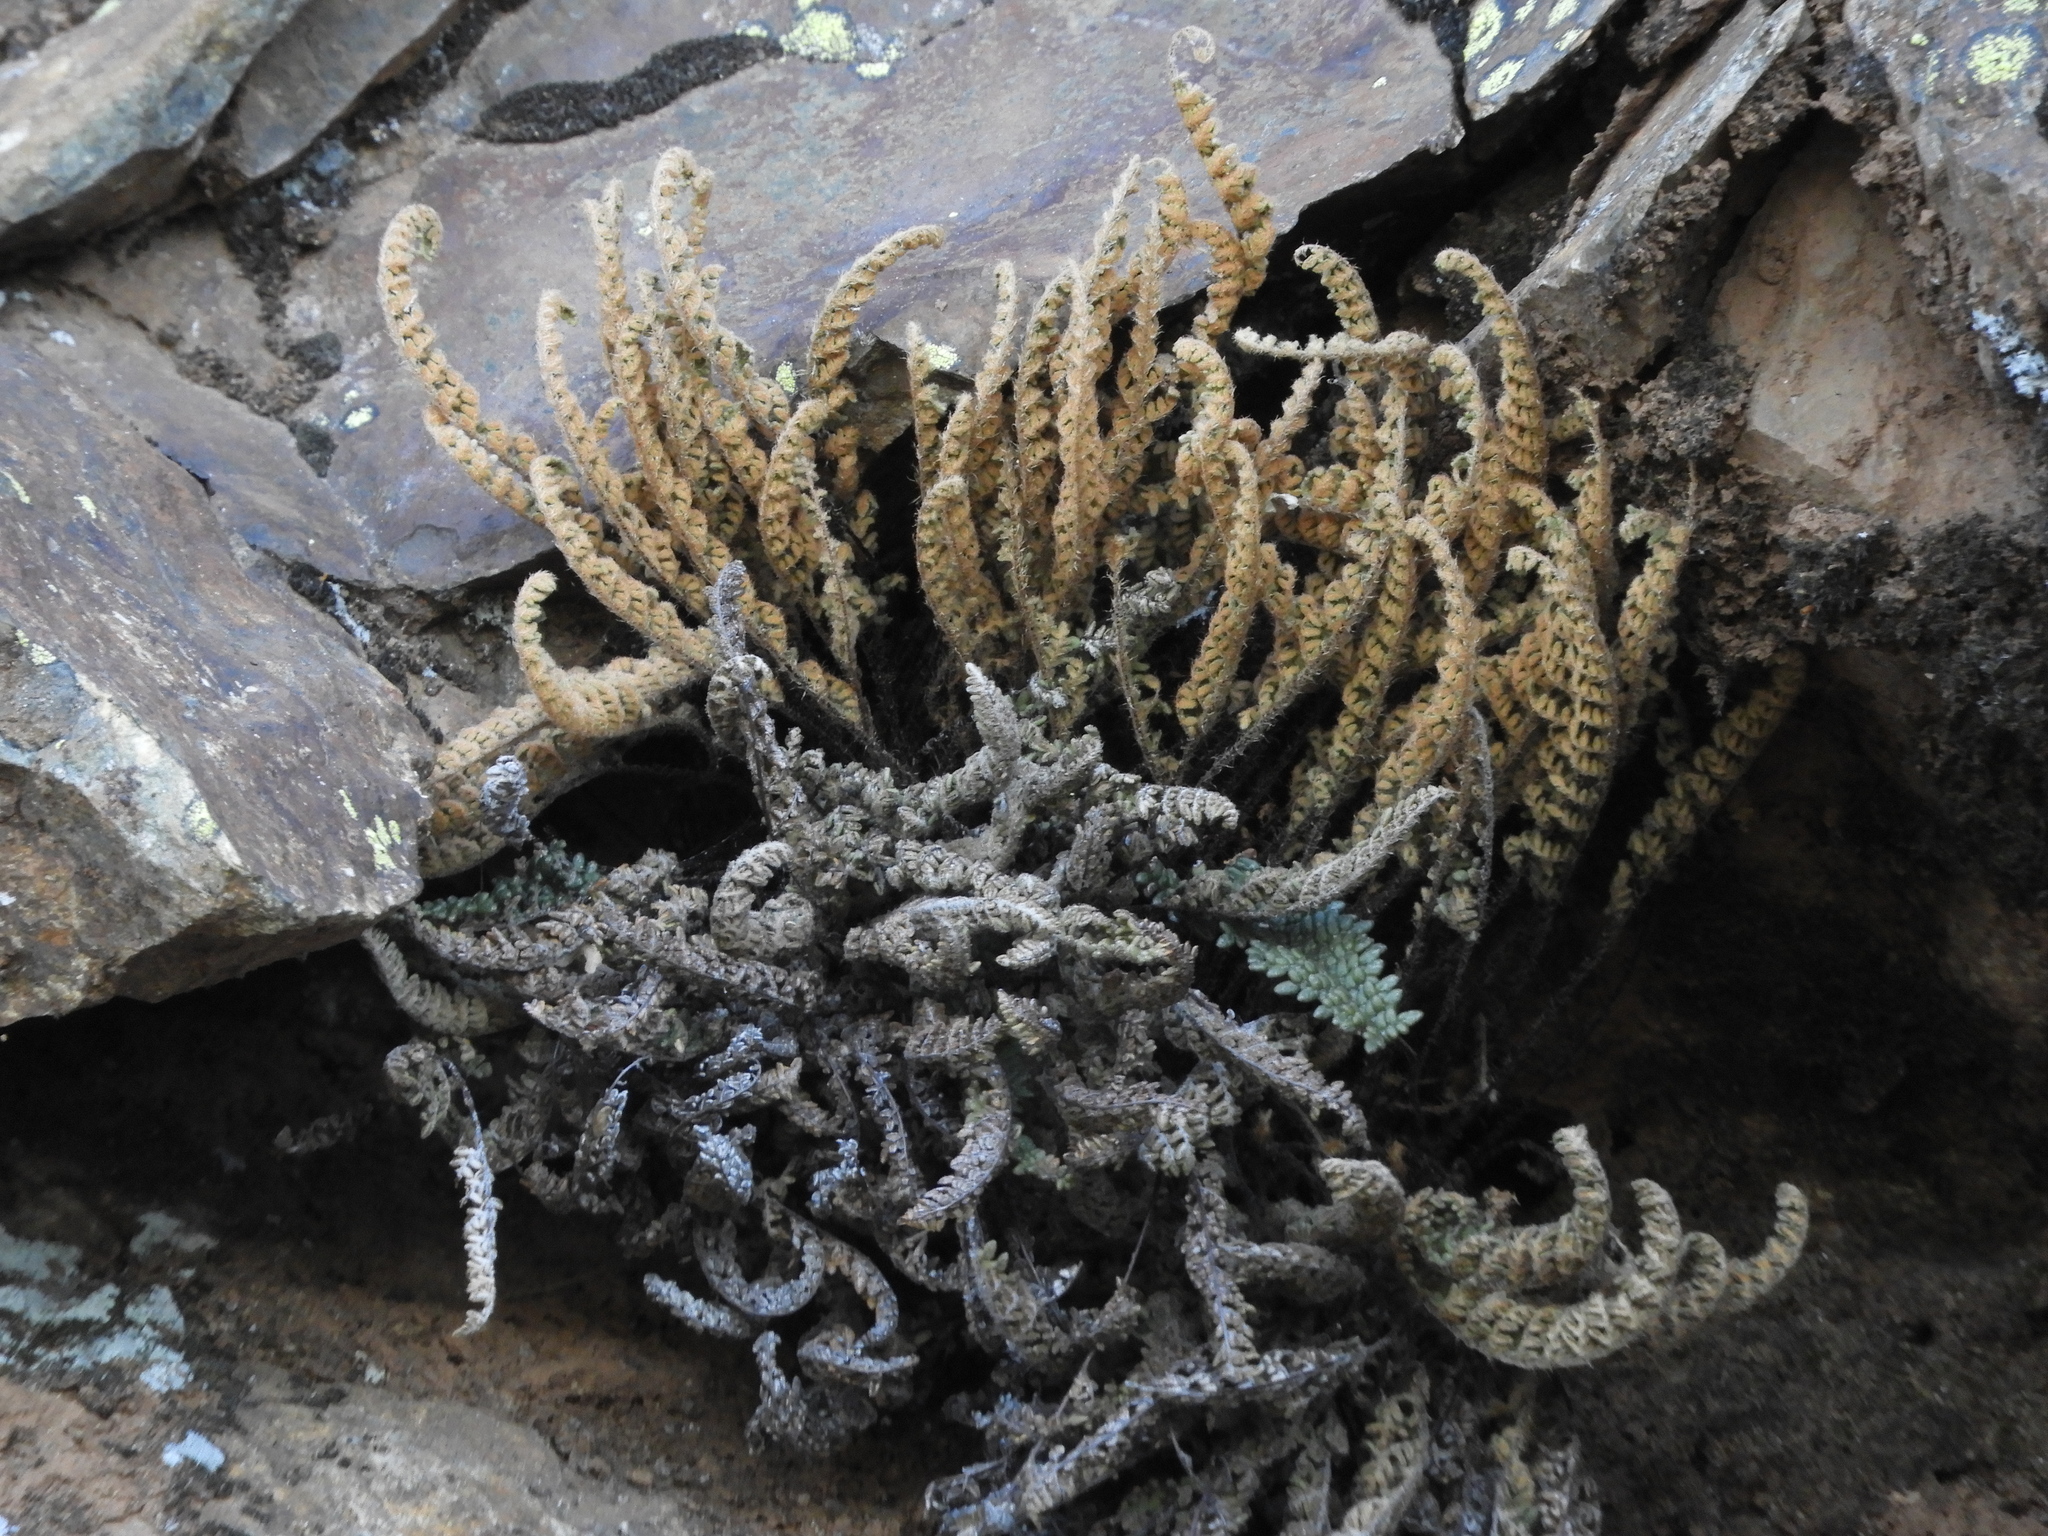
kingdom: Plantae
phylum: Tracheophyta
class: Polypodiopsida
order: Polypodiales
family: Pteridaceae
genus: Myriopteris
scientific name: Myriopteris gracillima
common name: Lace fern
